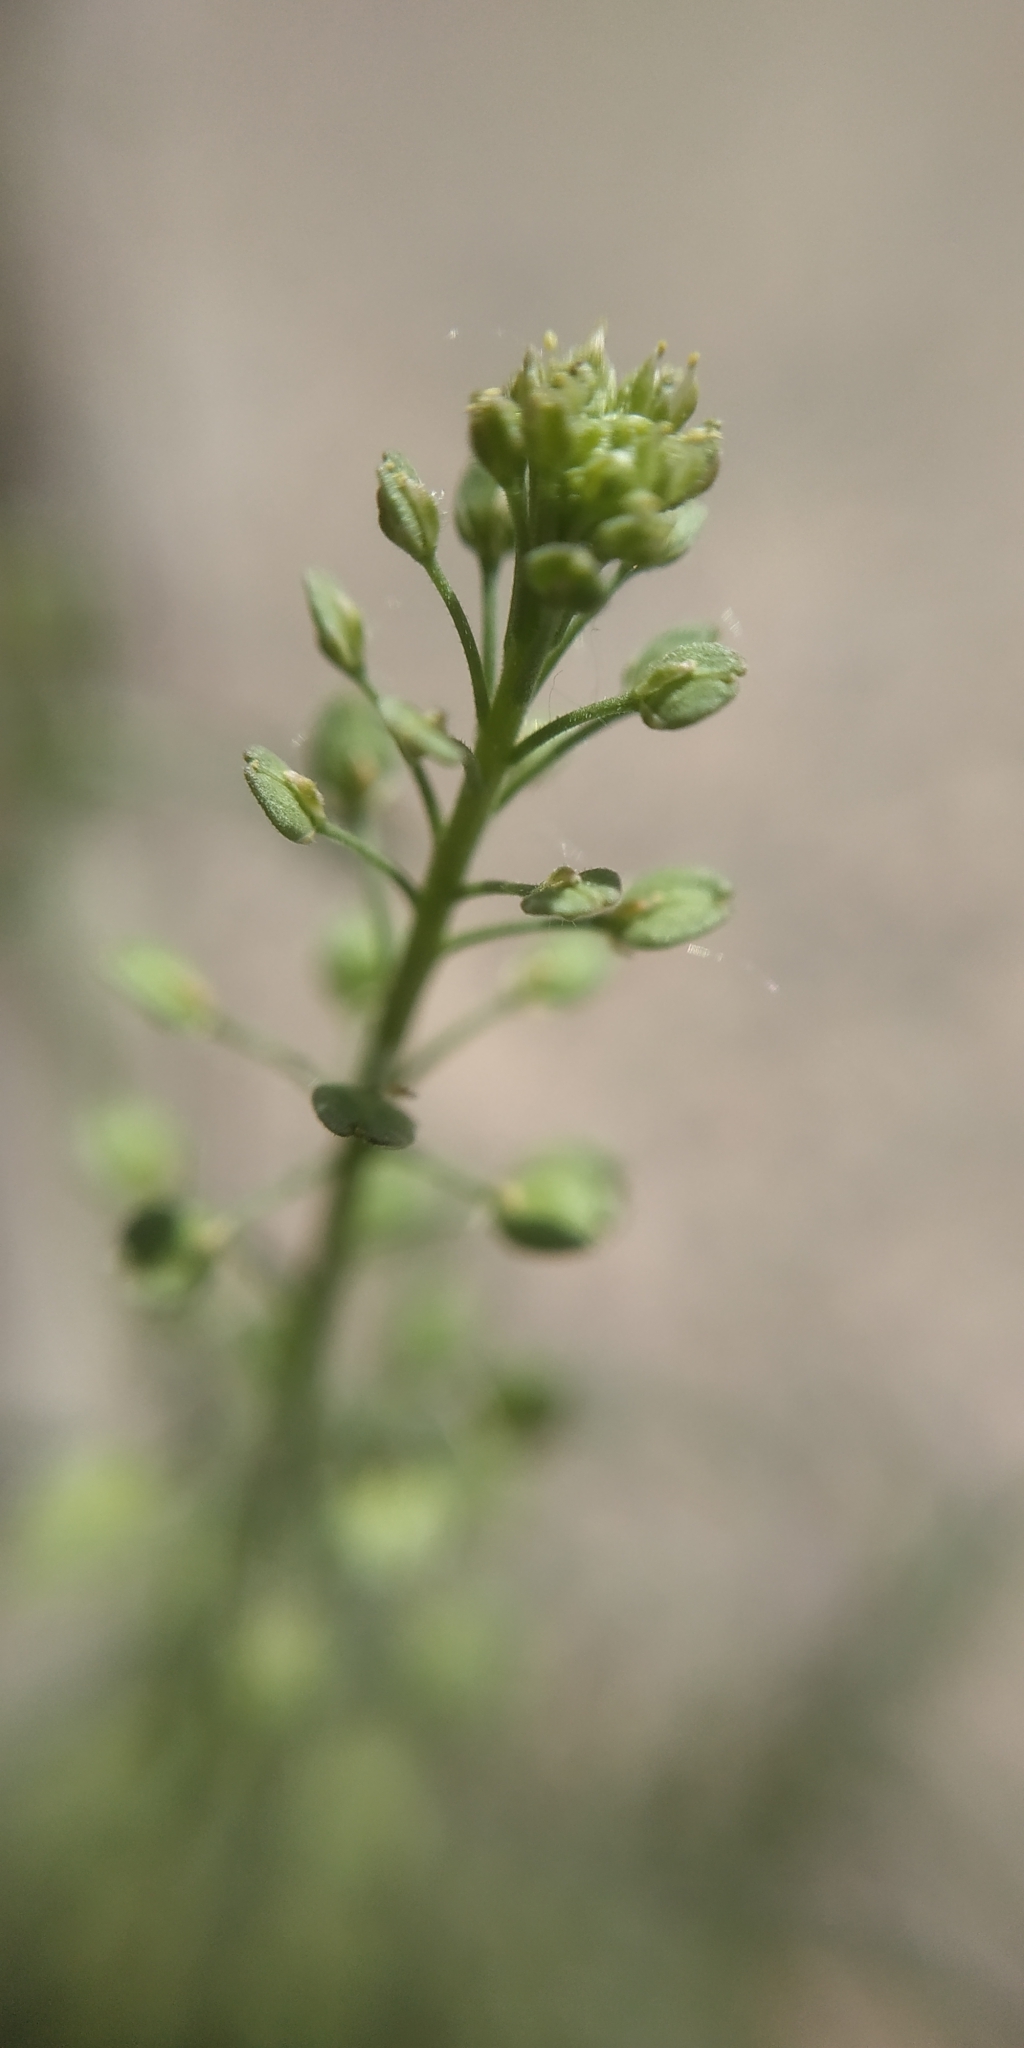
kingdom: Plantae
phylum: Tracheophyta
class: Magnoliopsida
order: Brassicales
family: Brassicaceae
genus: Lepidium
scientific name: Lepidium densiflorum
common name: Miner's pepperwort
